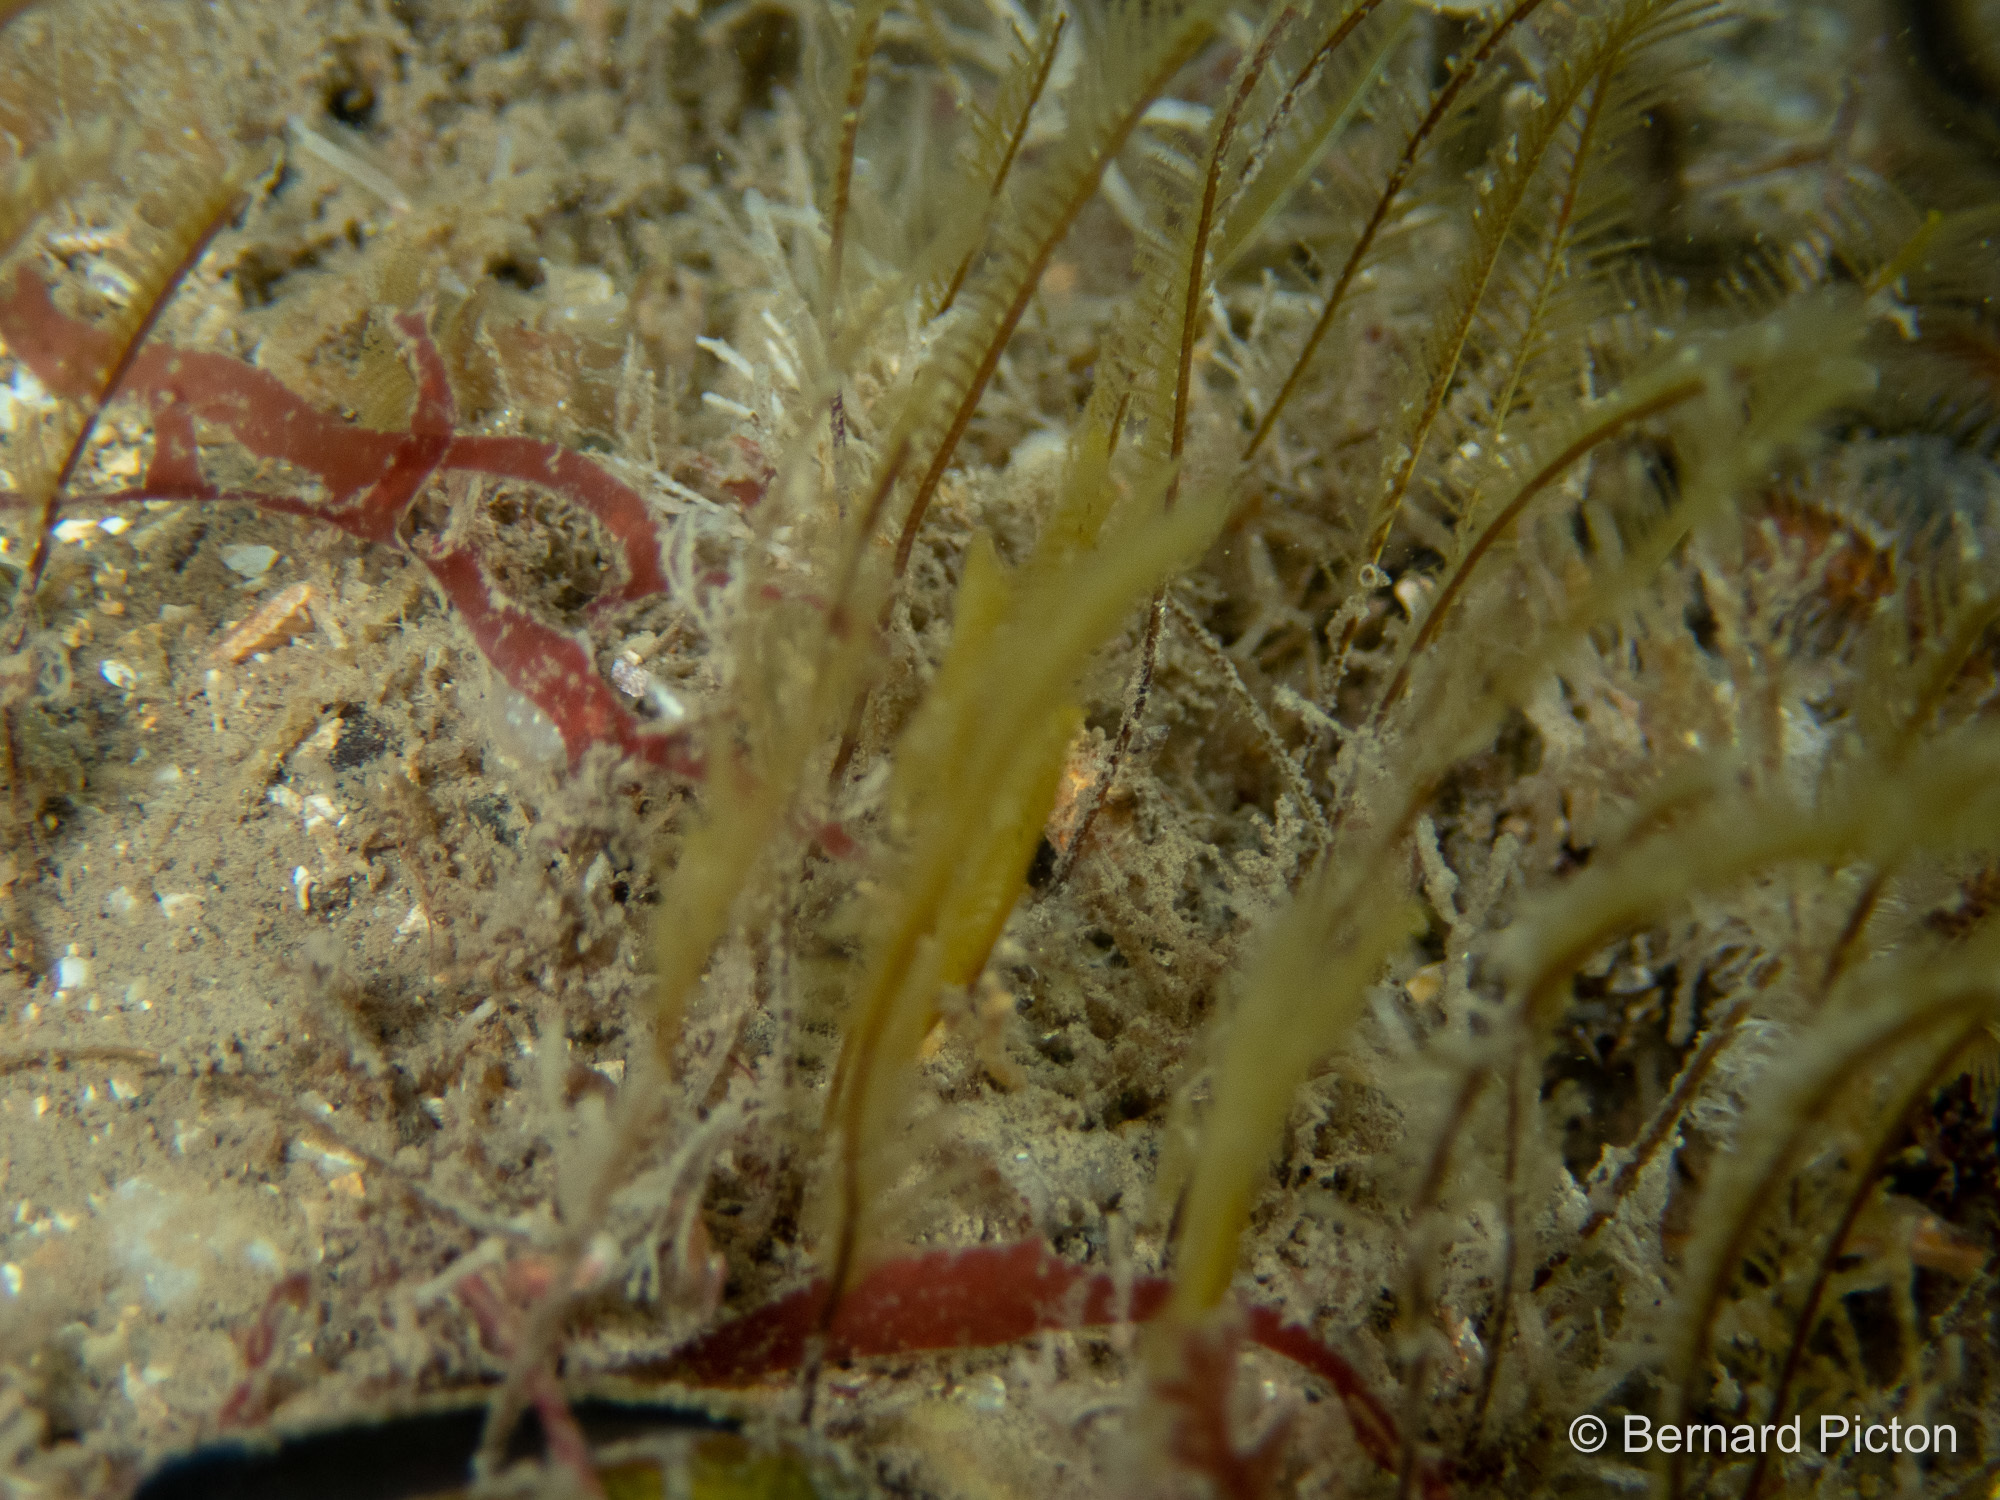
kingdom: Animalia
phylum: Cnidaria
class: Hydrozoa
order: Leptothecata
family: Aglaopheniidae
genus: Aglaophenia
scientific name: Aglaophenia tubulifera
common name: Plume hydroid
